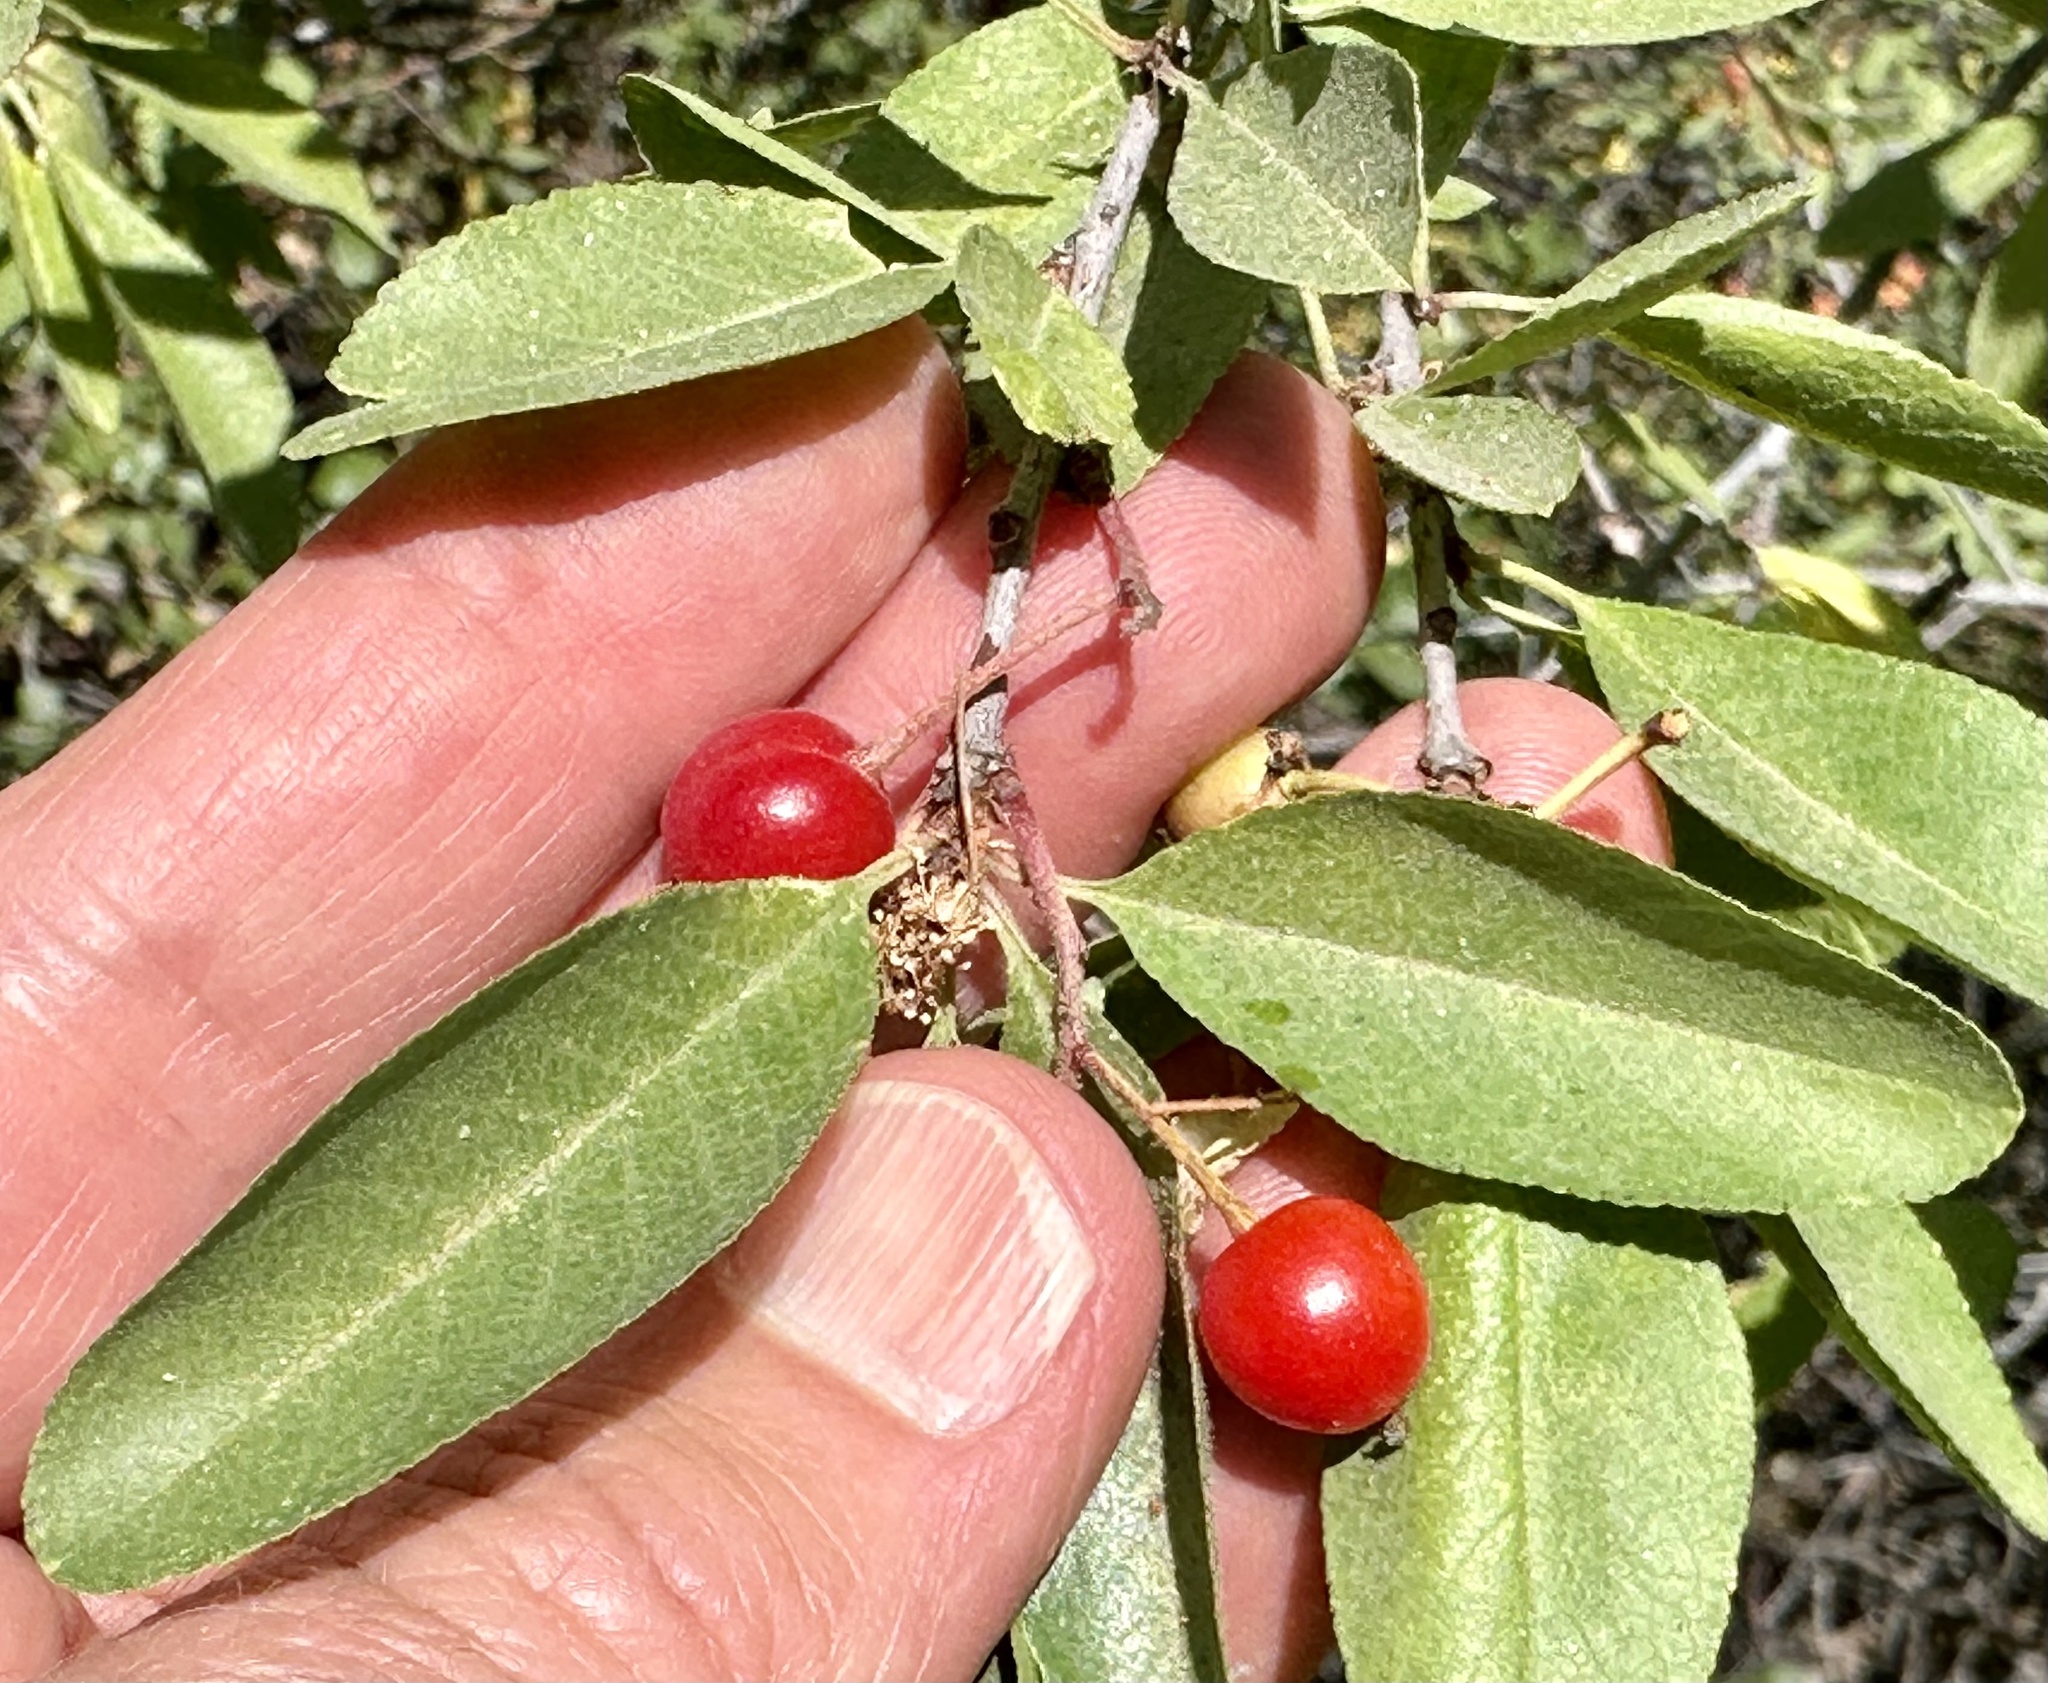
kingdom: Plantae
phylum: Tracheophyta
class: Magnoliopsida
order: Rosales
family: Rosaceae
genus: Prunus
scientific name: Prunus emarginata
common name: Bitter cherry
